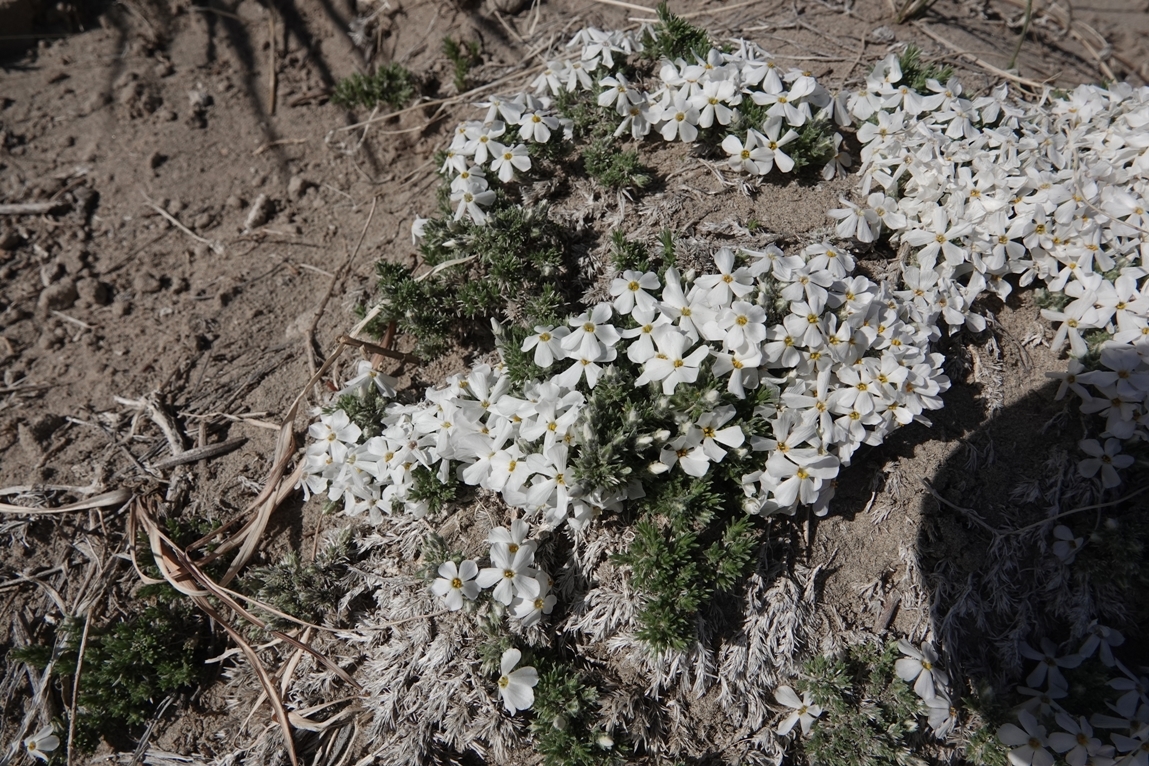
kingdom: Plantae
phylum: Tracheophyta
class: Magnoliopsida
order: Ericales
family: Polemoniaceae
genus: Phlox
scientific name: Phlox hoodii
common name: Moss phlox
